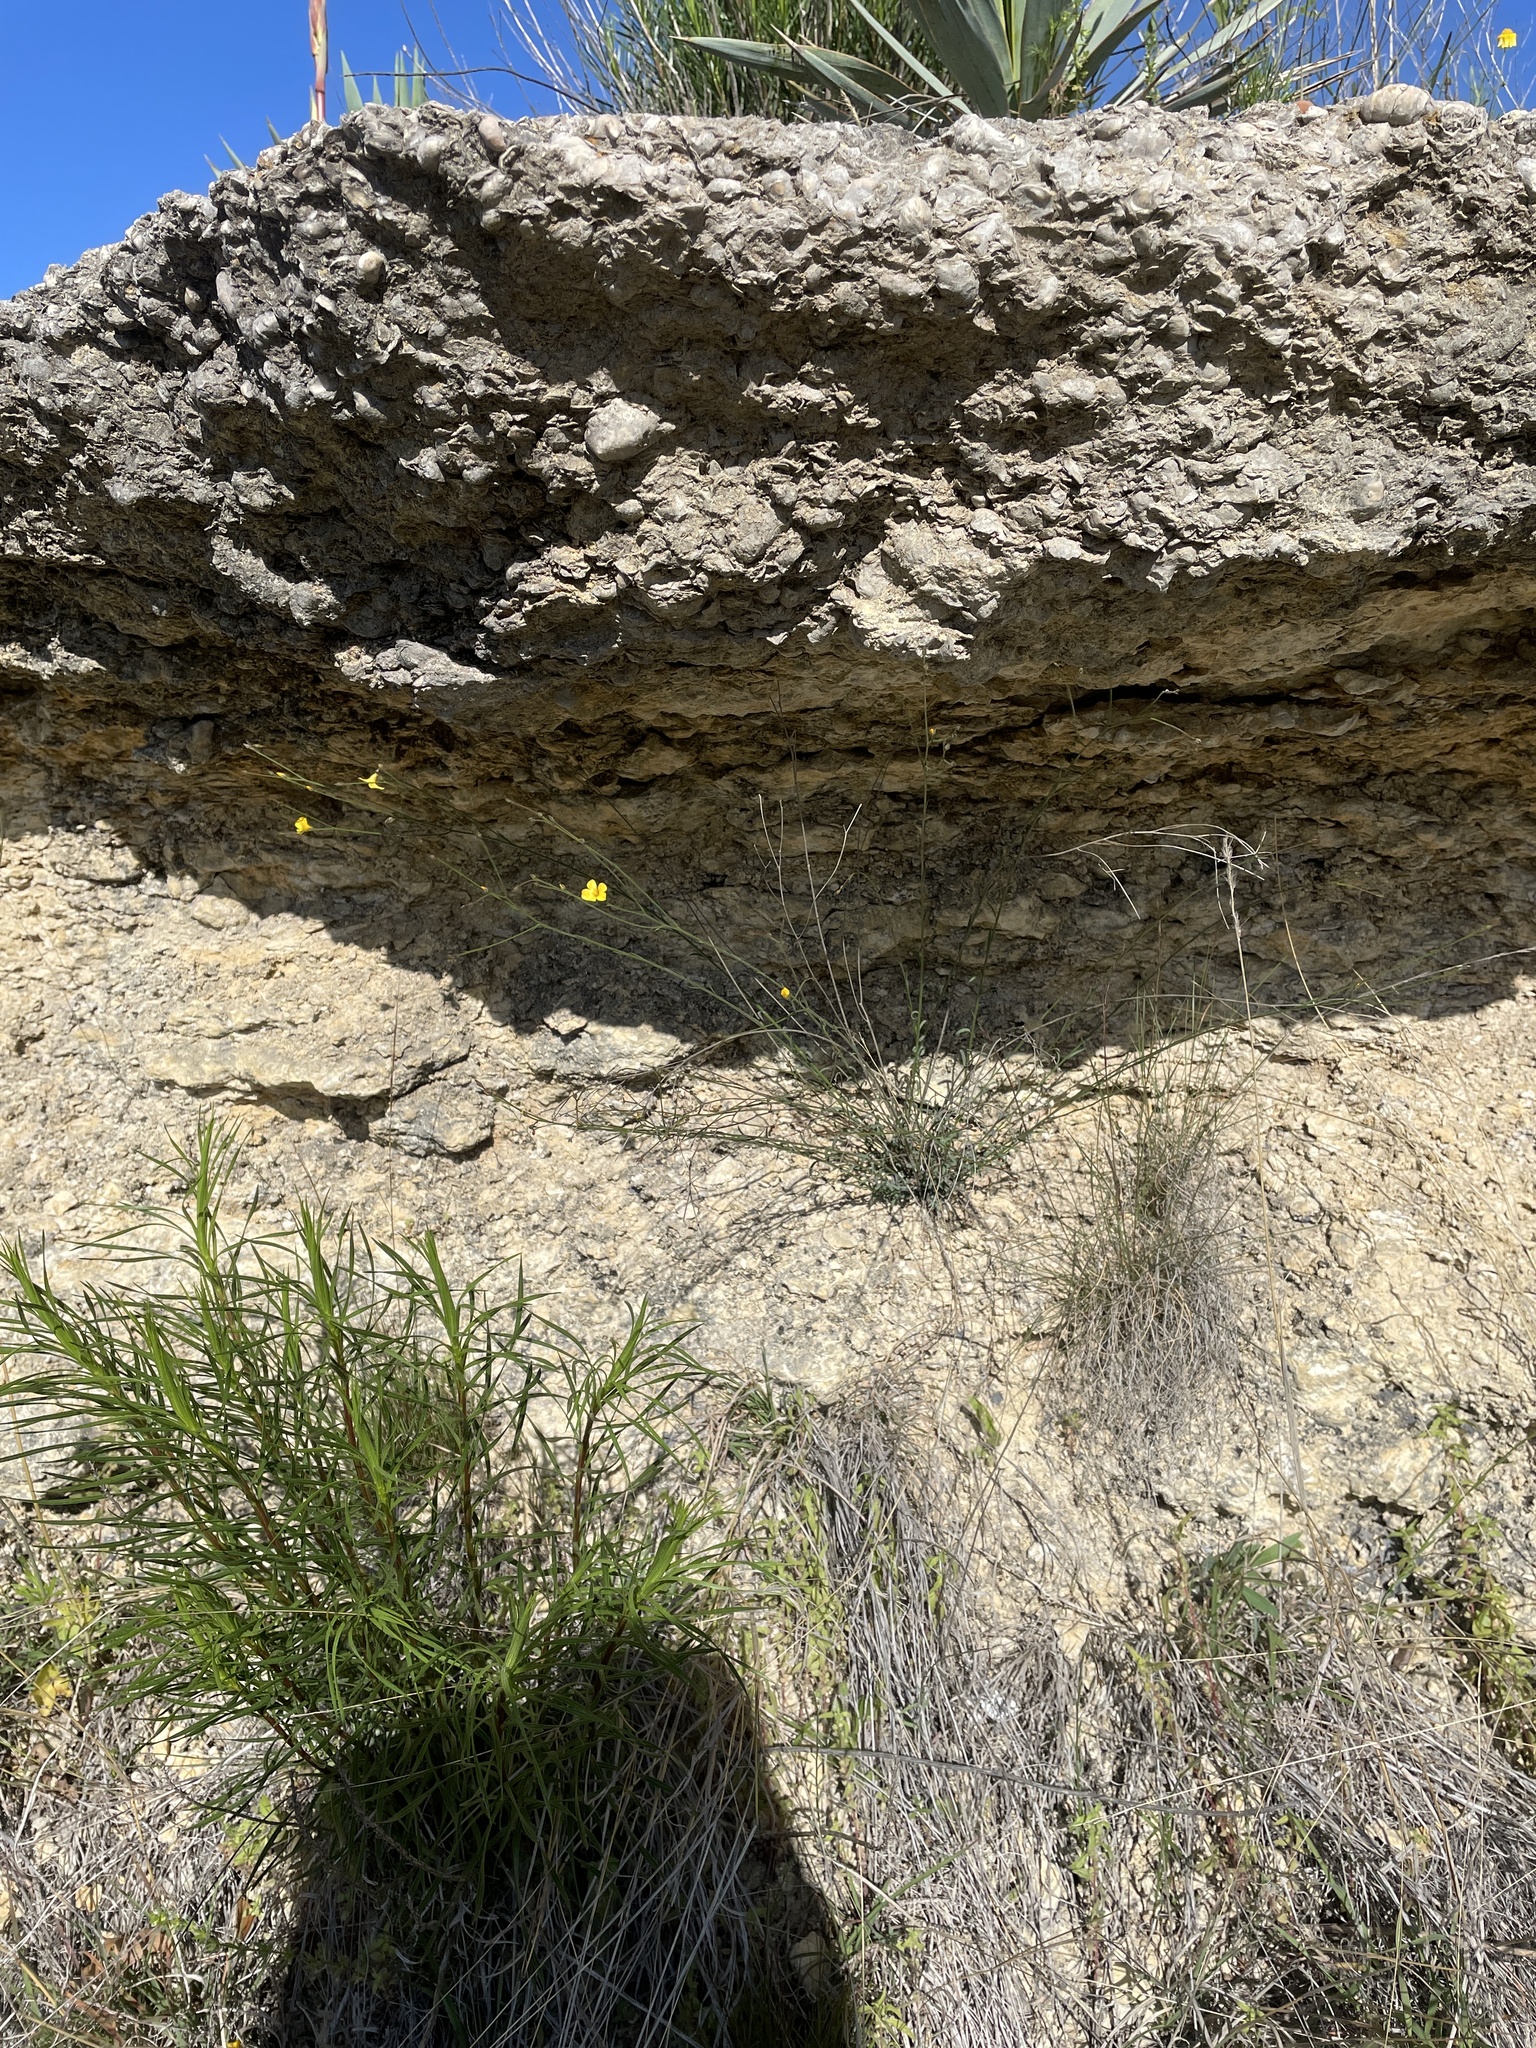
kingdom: Plantae
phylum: Tracheophyta
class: Magnoliopsida
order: Malpighiales
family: Linaceae
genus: Linum
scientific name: Linum rupestre
